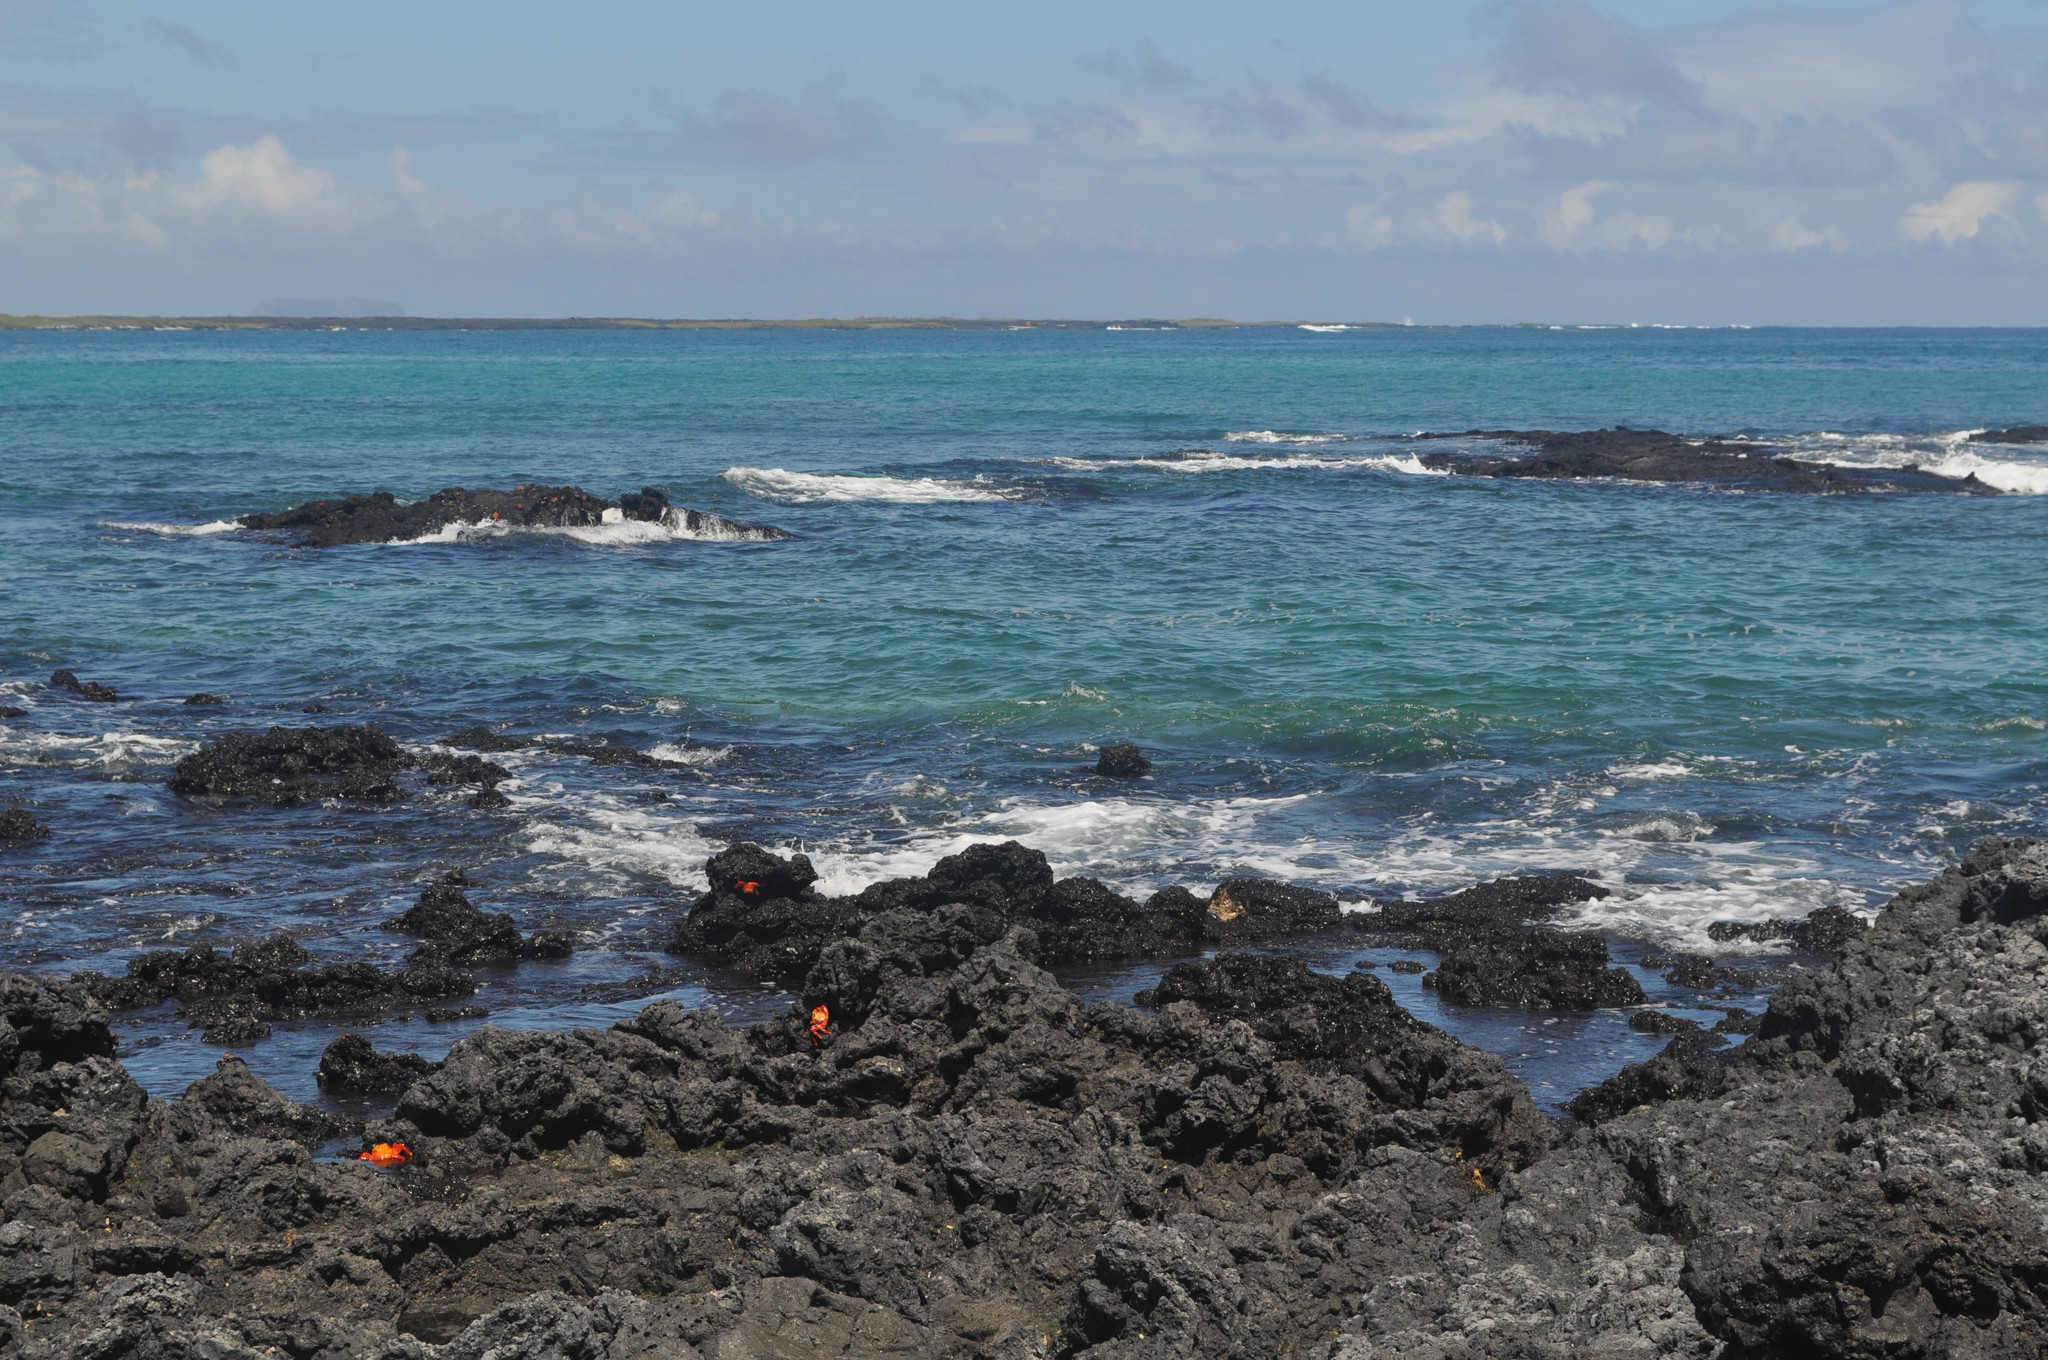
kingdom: Animalia
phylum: Arthropoda
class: Malacostraca
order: Decapoda
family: Grapsidae
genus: Grapsus
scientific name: Grapsus grapsus
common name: Sally lightfoot
